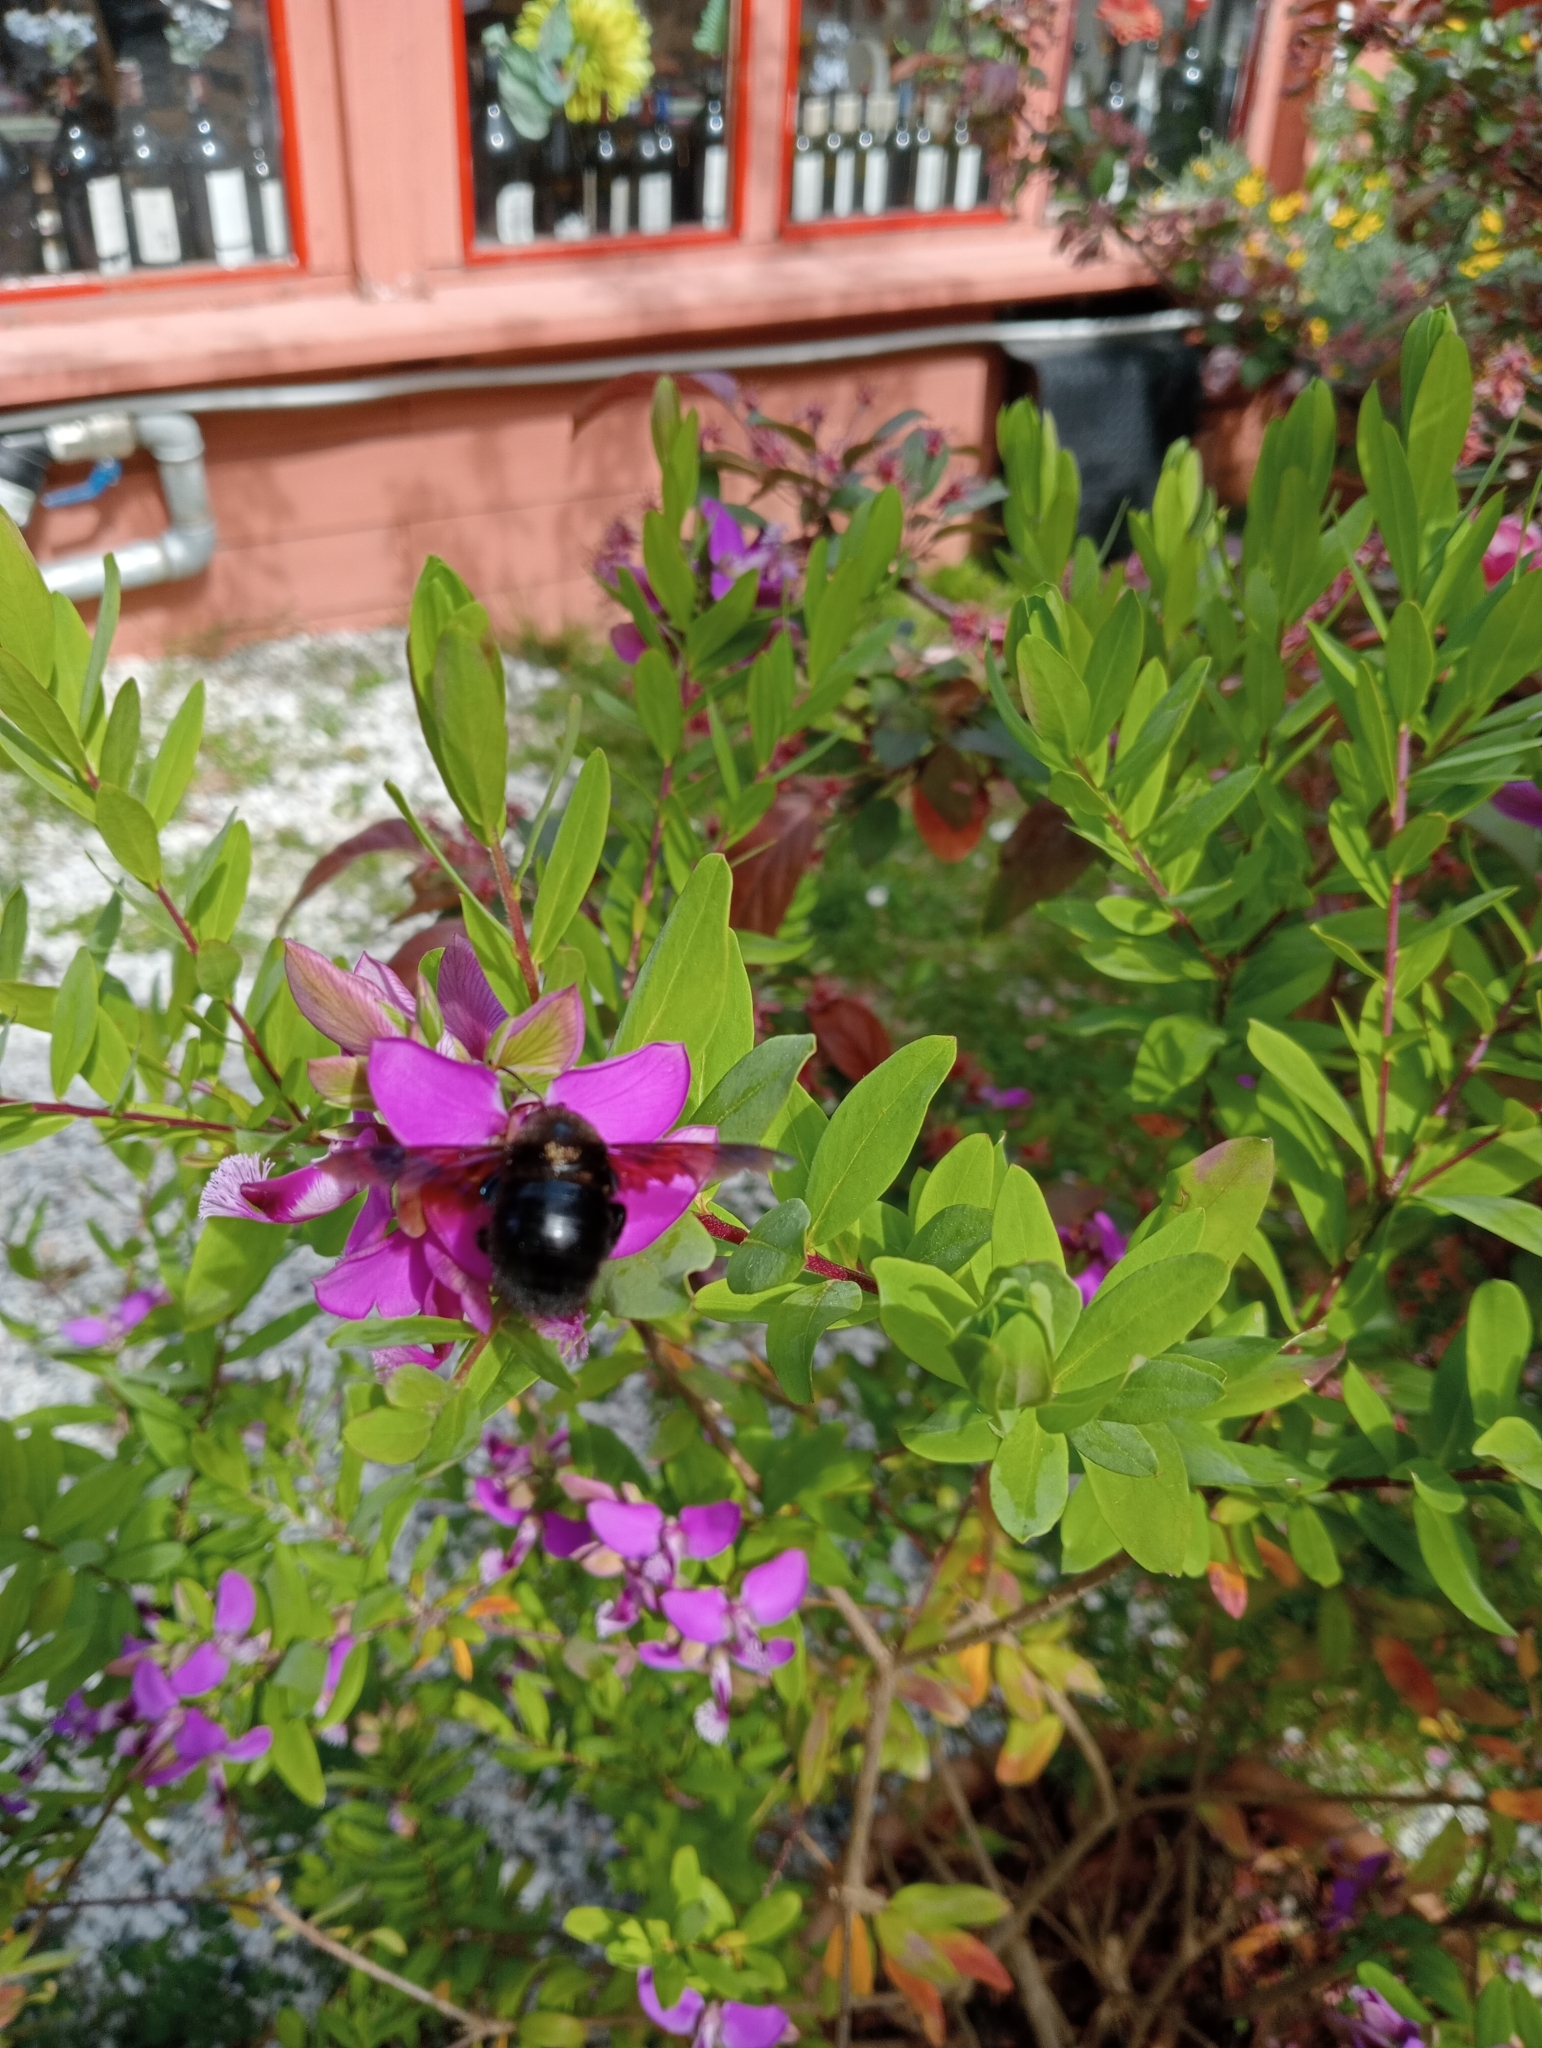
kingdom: Animalia
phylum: Arthropoda
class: Insecta
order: Hymenoptera
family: Apidae
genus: Xylocopa
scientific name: Xylocopa violacea
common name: Violet carpenter bee
